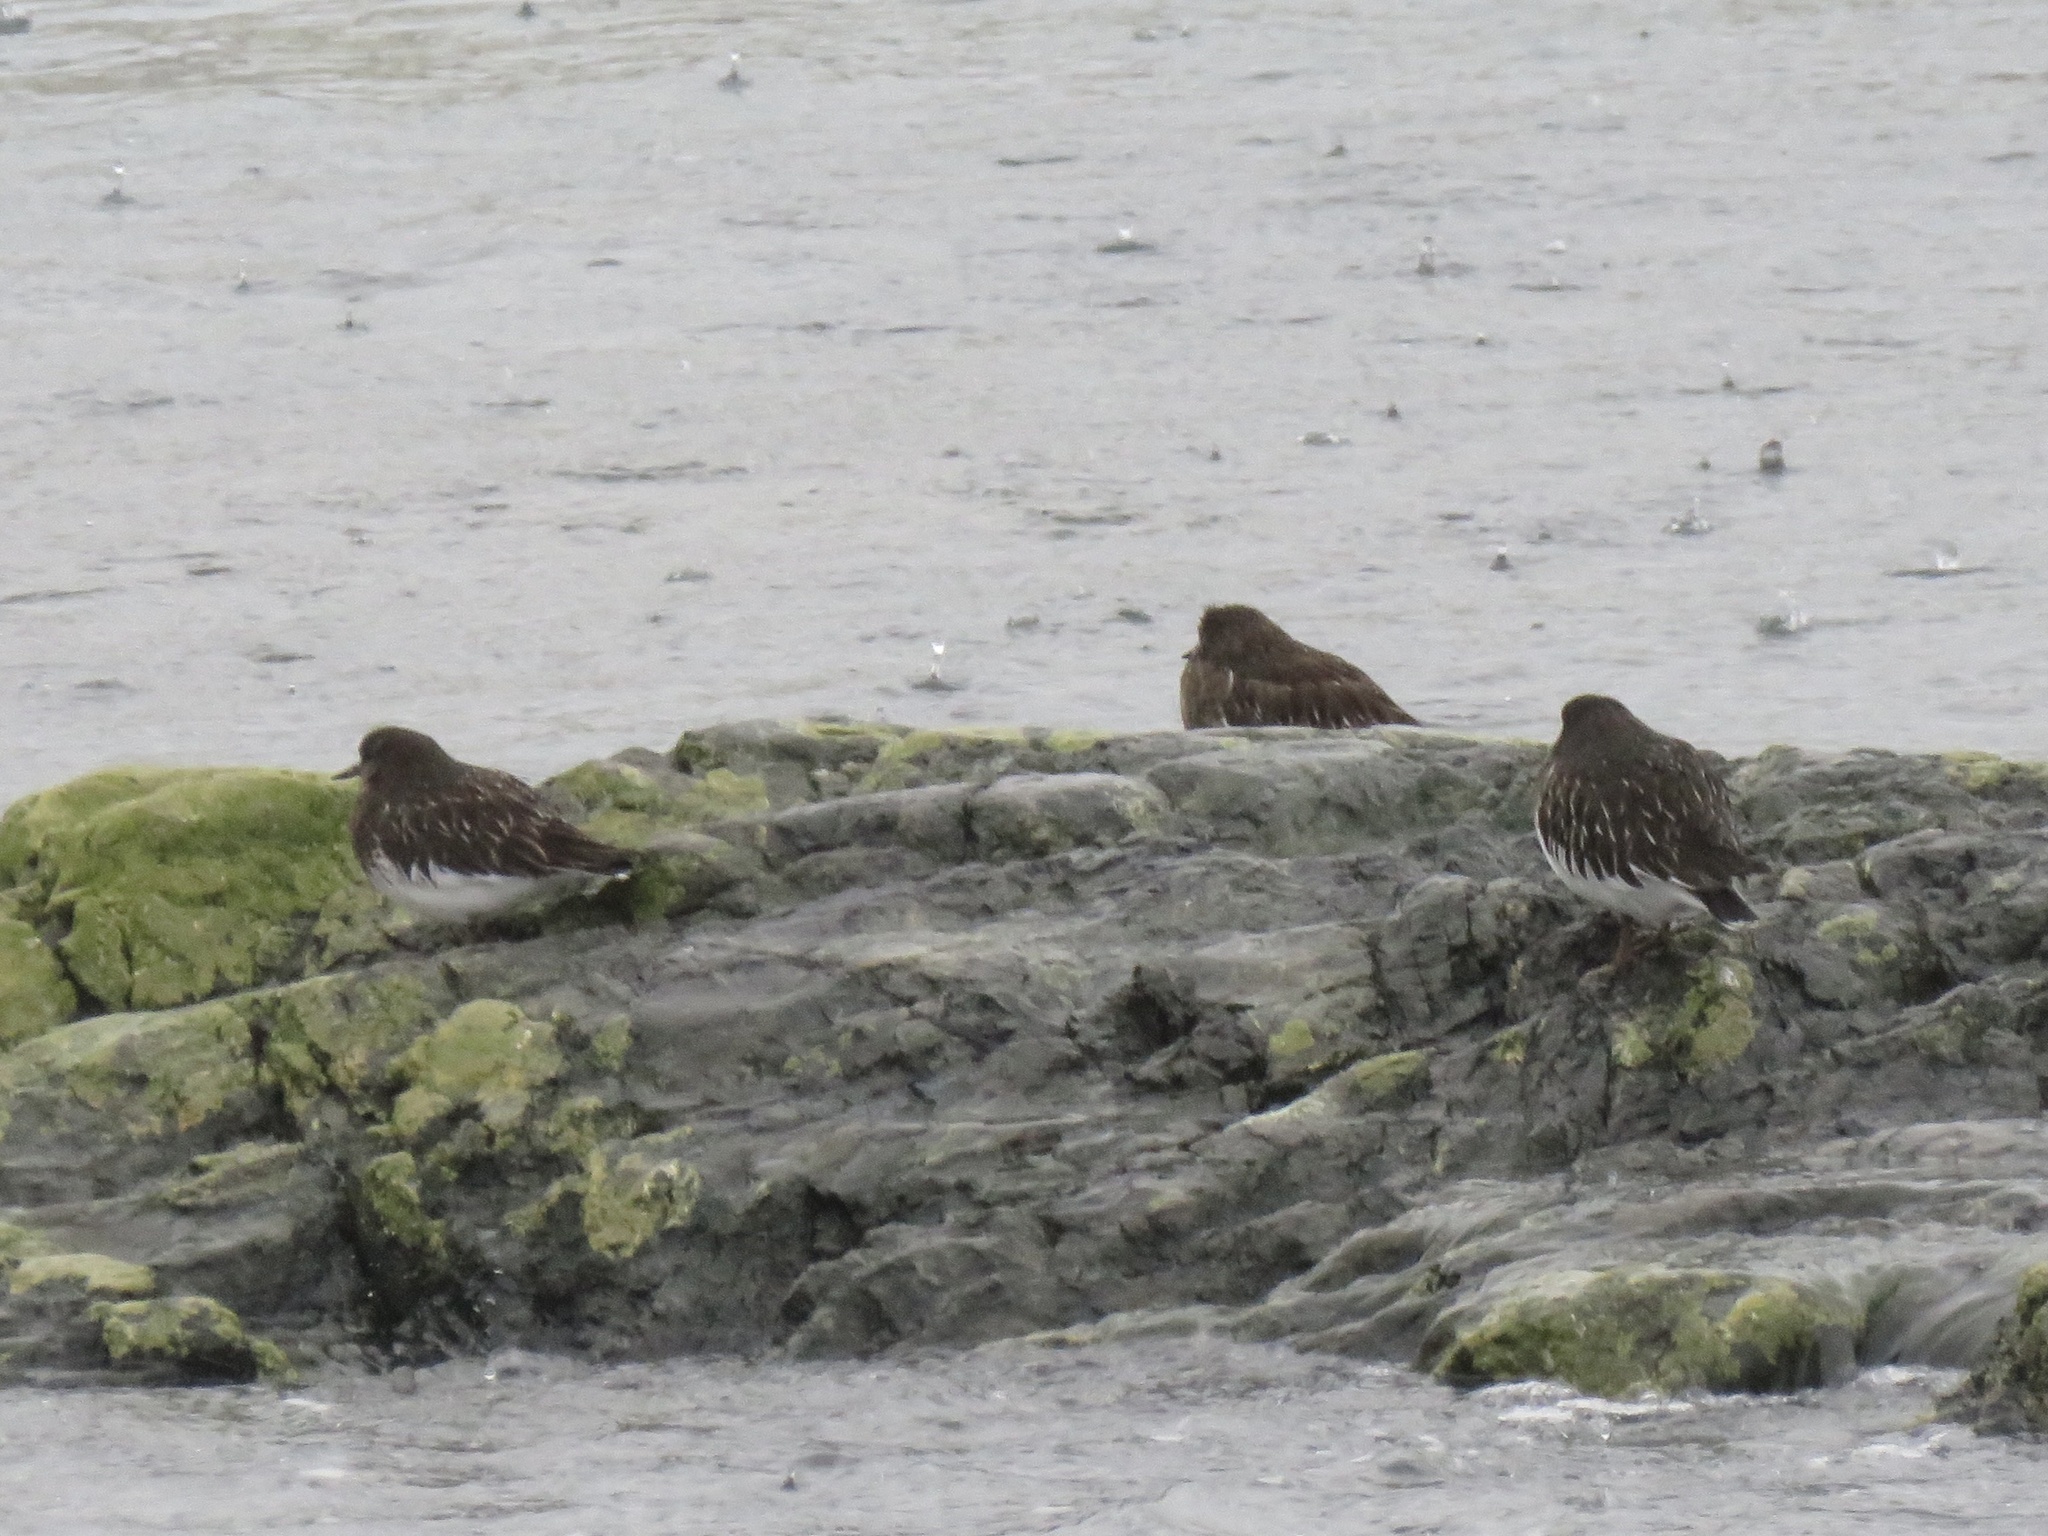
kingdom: Animalia
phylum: Chordata
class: Aves
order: Charadriiformes
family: Scolopacidae
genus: Arenaria
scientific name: Arenaria melanocephala
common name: Black turnstone
